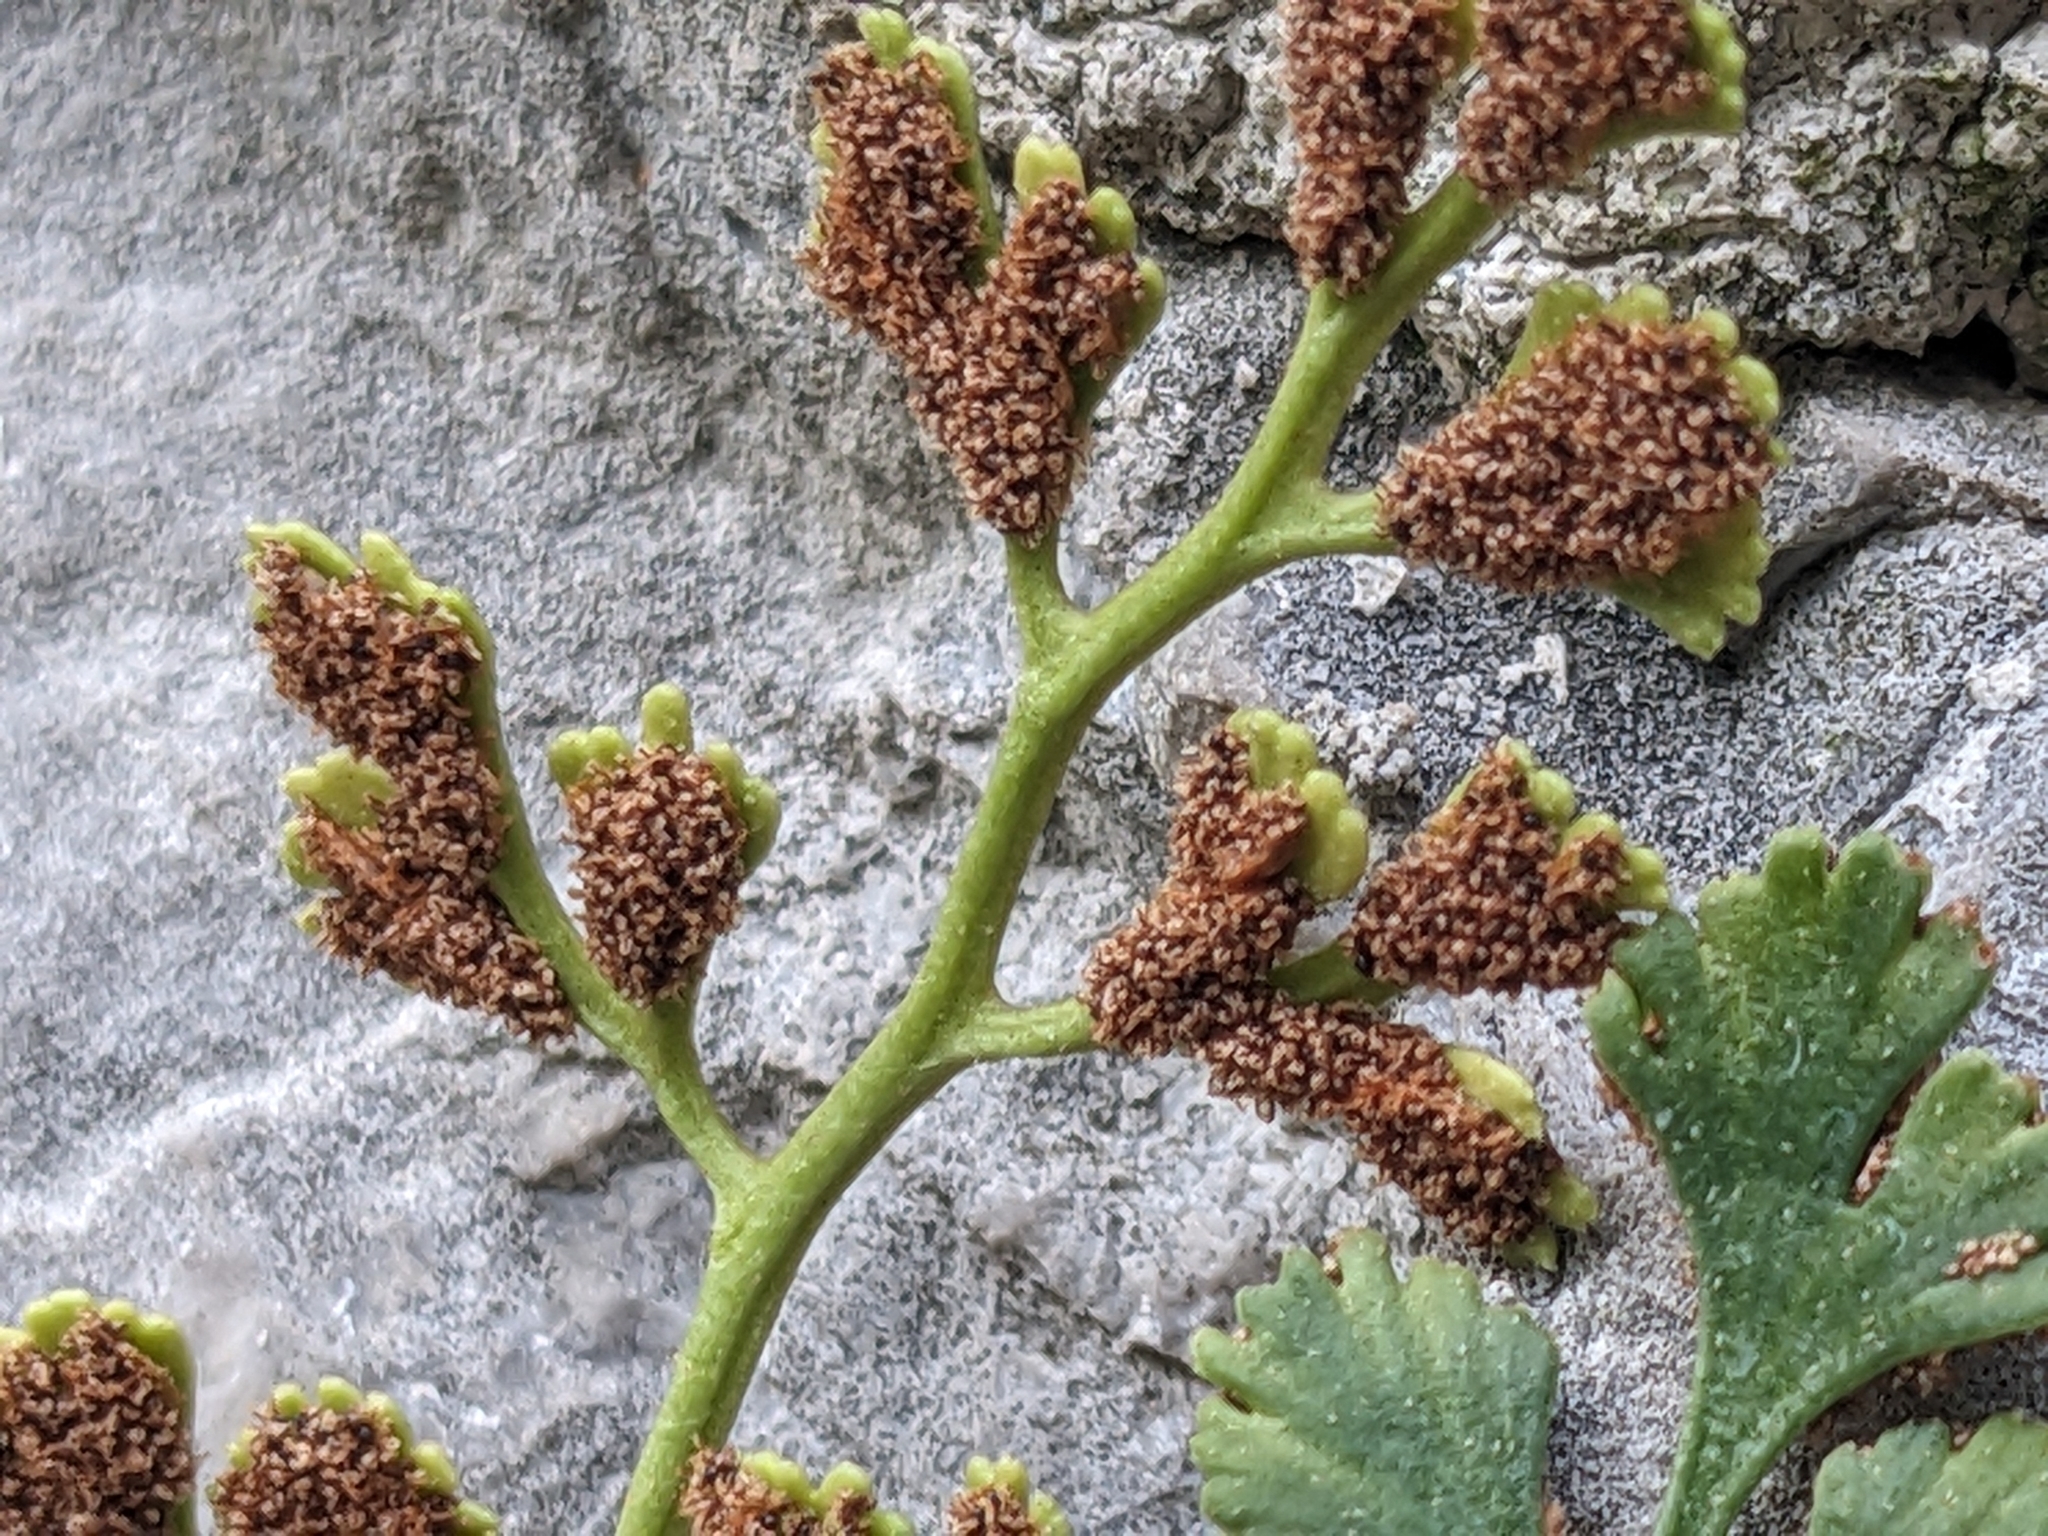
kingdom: Plantae
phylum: Tracheophyta
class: Polypodiopsida
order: Polypodiales
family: Aspleniaceae
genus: Asplenium
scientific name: Asplenium ruta-muraria
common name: Wall-rue
